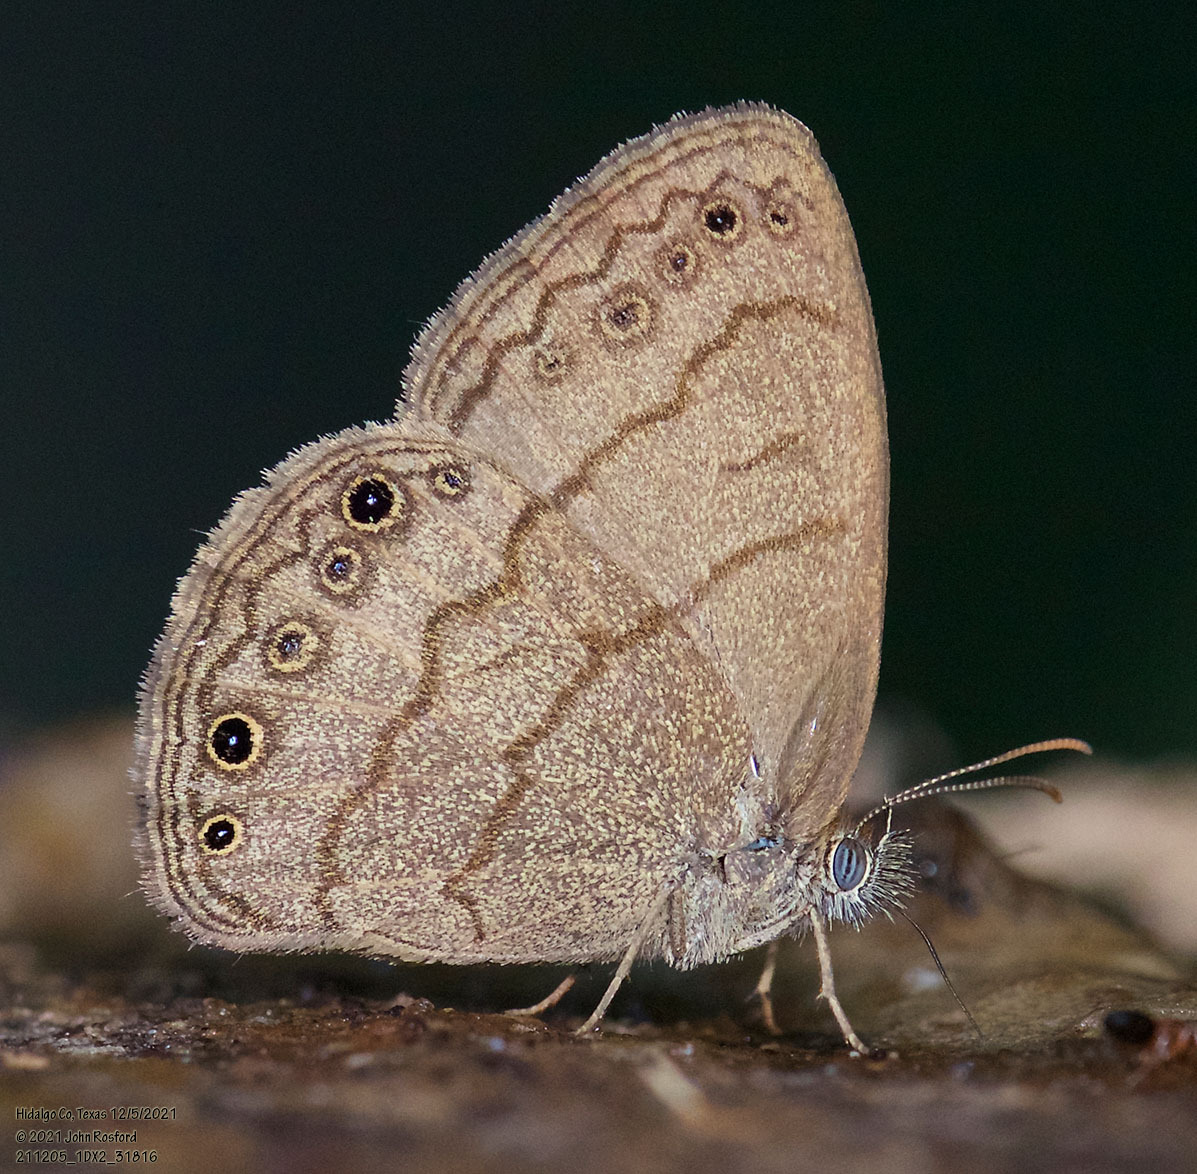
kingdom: Animalia
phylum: Arthropoda
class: Insecta
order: Lepidoptera
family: Nymphalidae
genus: Hermeuptychia
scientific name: Hermeuptychia hermybius
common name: South texas satyr
